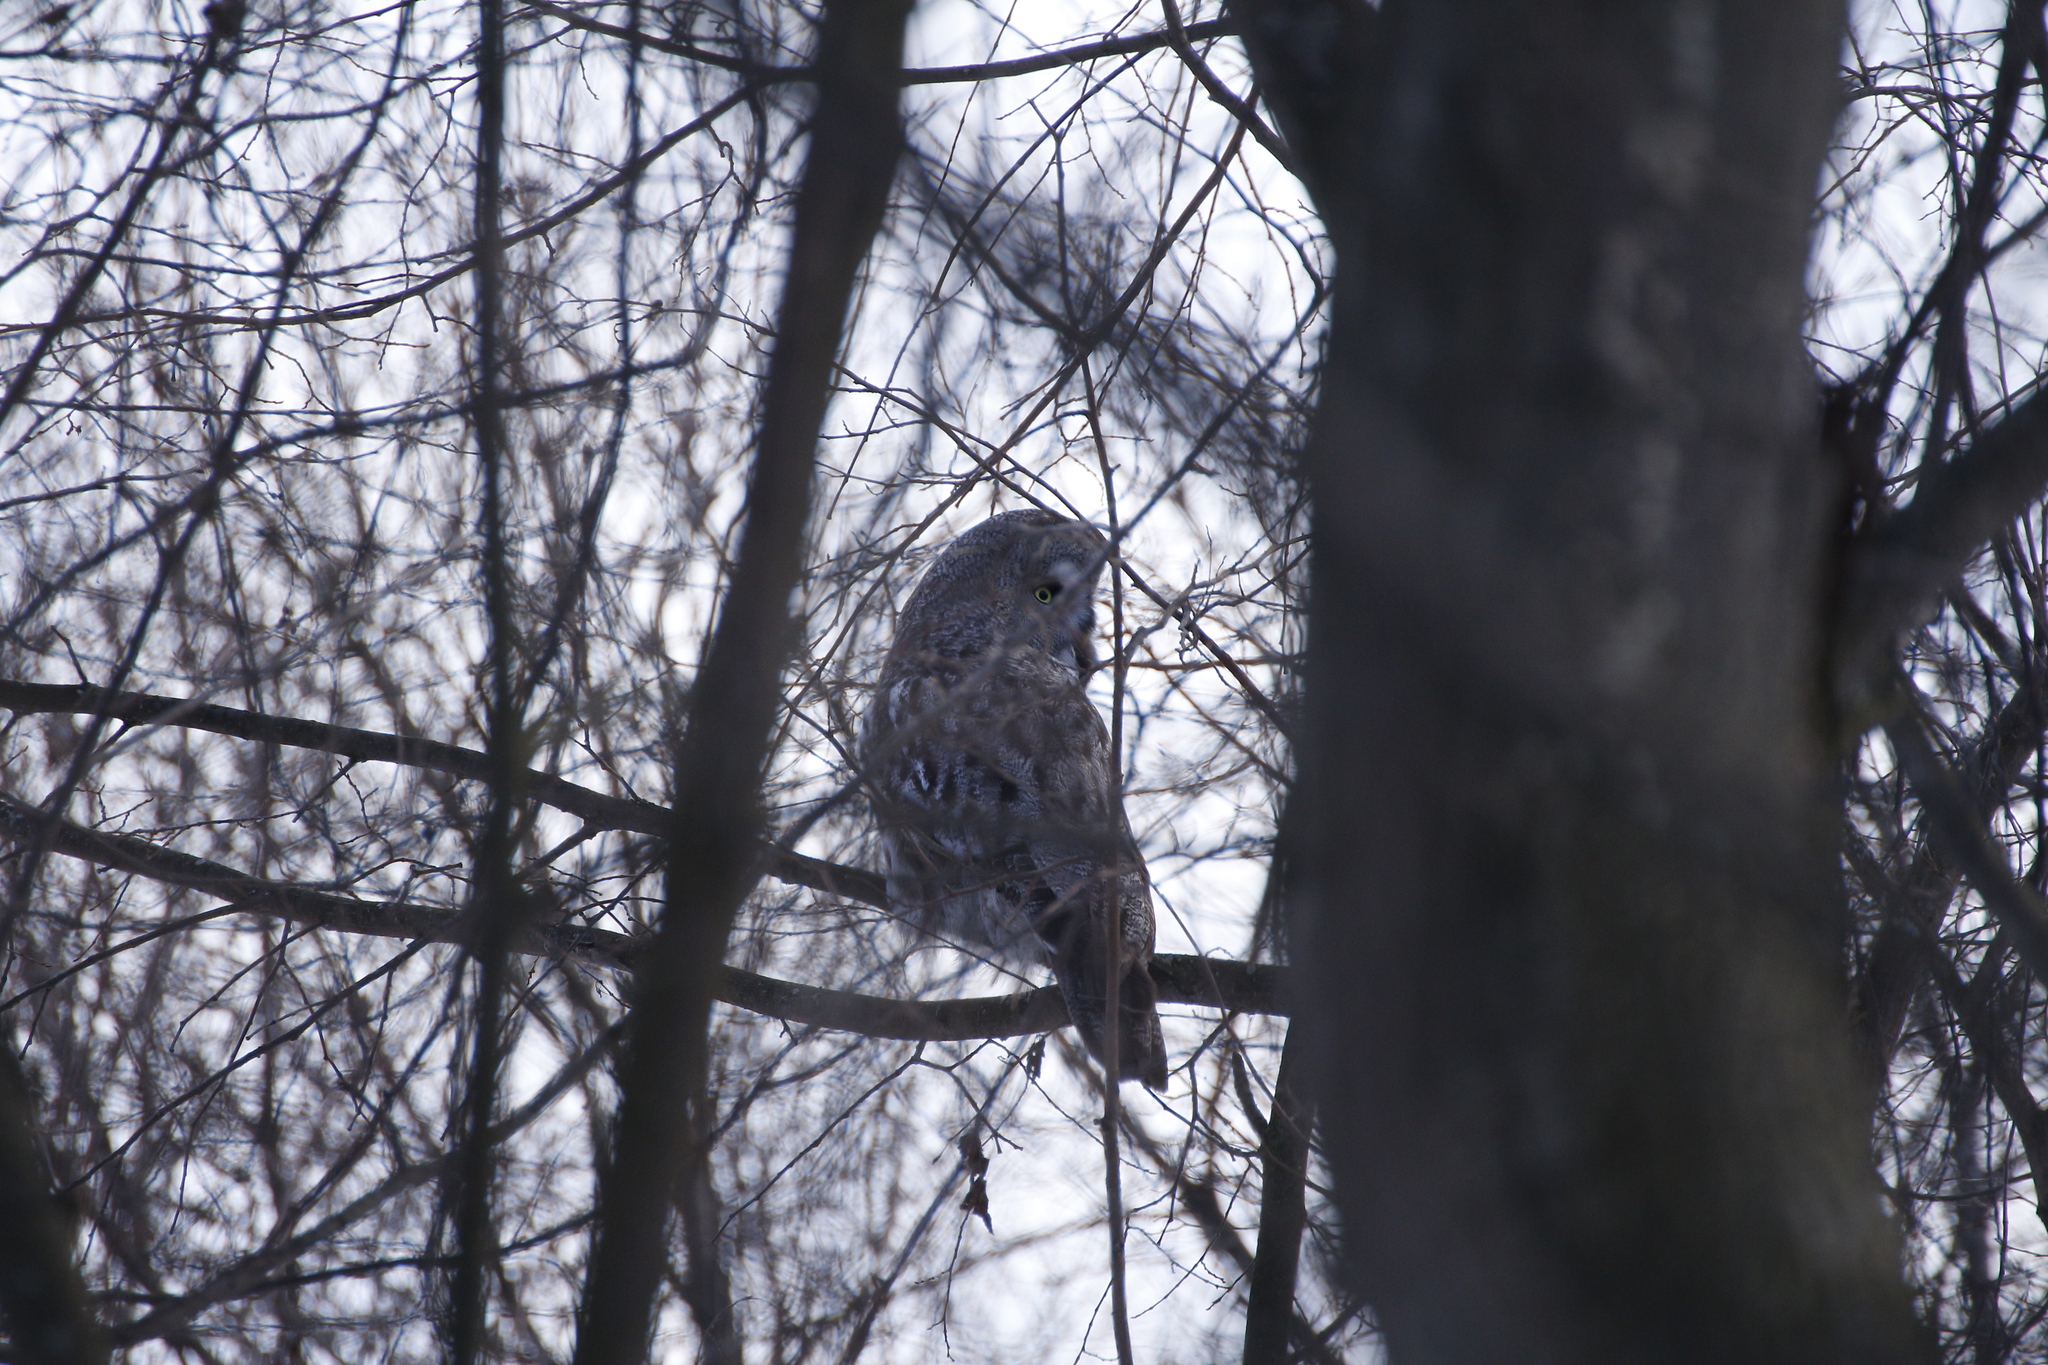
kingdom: Animalia
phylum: Chordata
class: Aves
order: Strigiformes
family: Strigidae
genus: Strix
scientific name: Strix nebulosa
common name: Great grey owl
